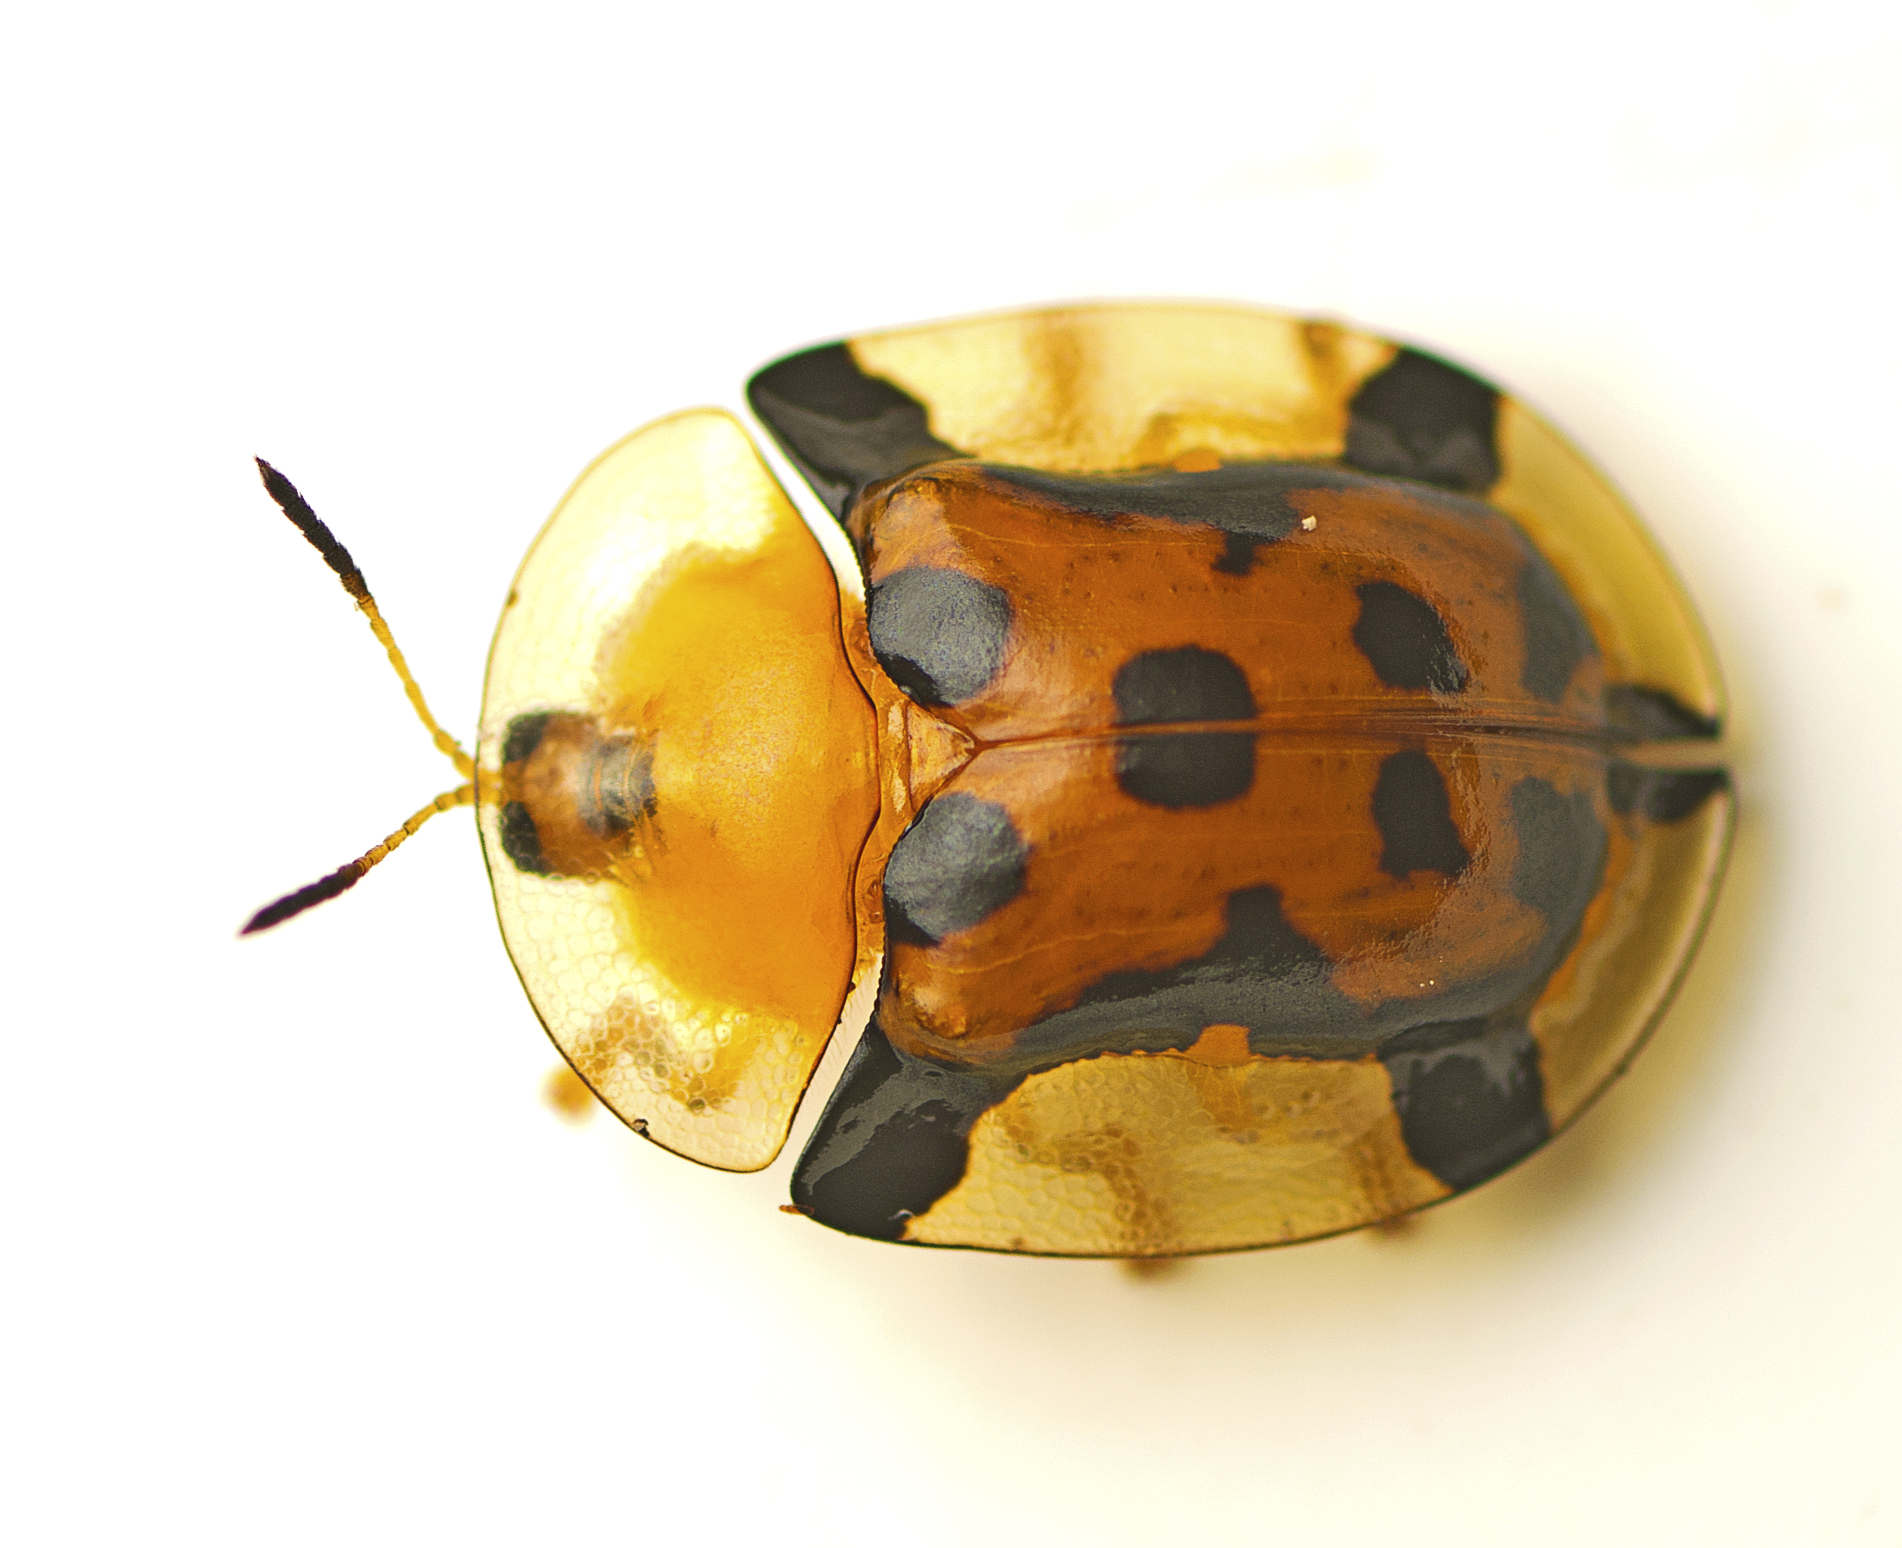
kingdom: Animalia
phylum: Arthropoda
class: Insecta
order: Coleoptera
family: Chrysomelidae
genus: Aspidimorpha
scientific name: Aspidimorpha westwoodii
